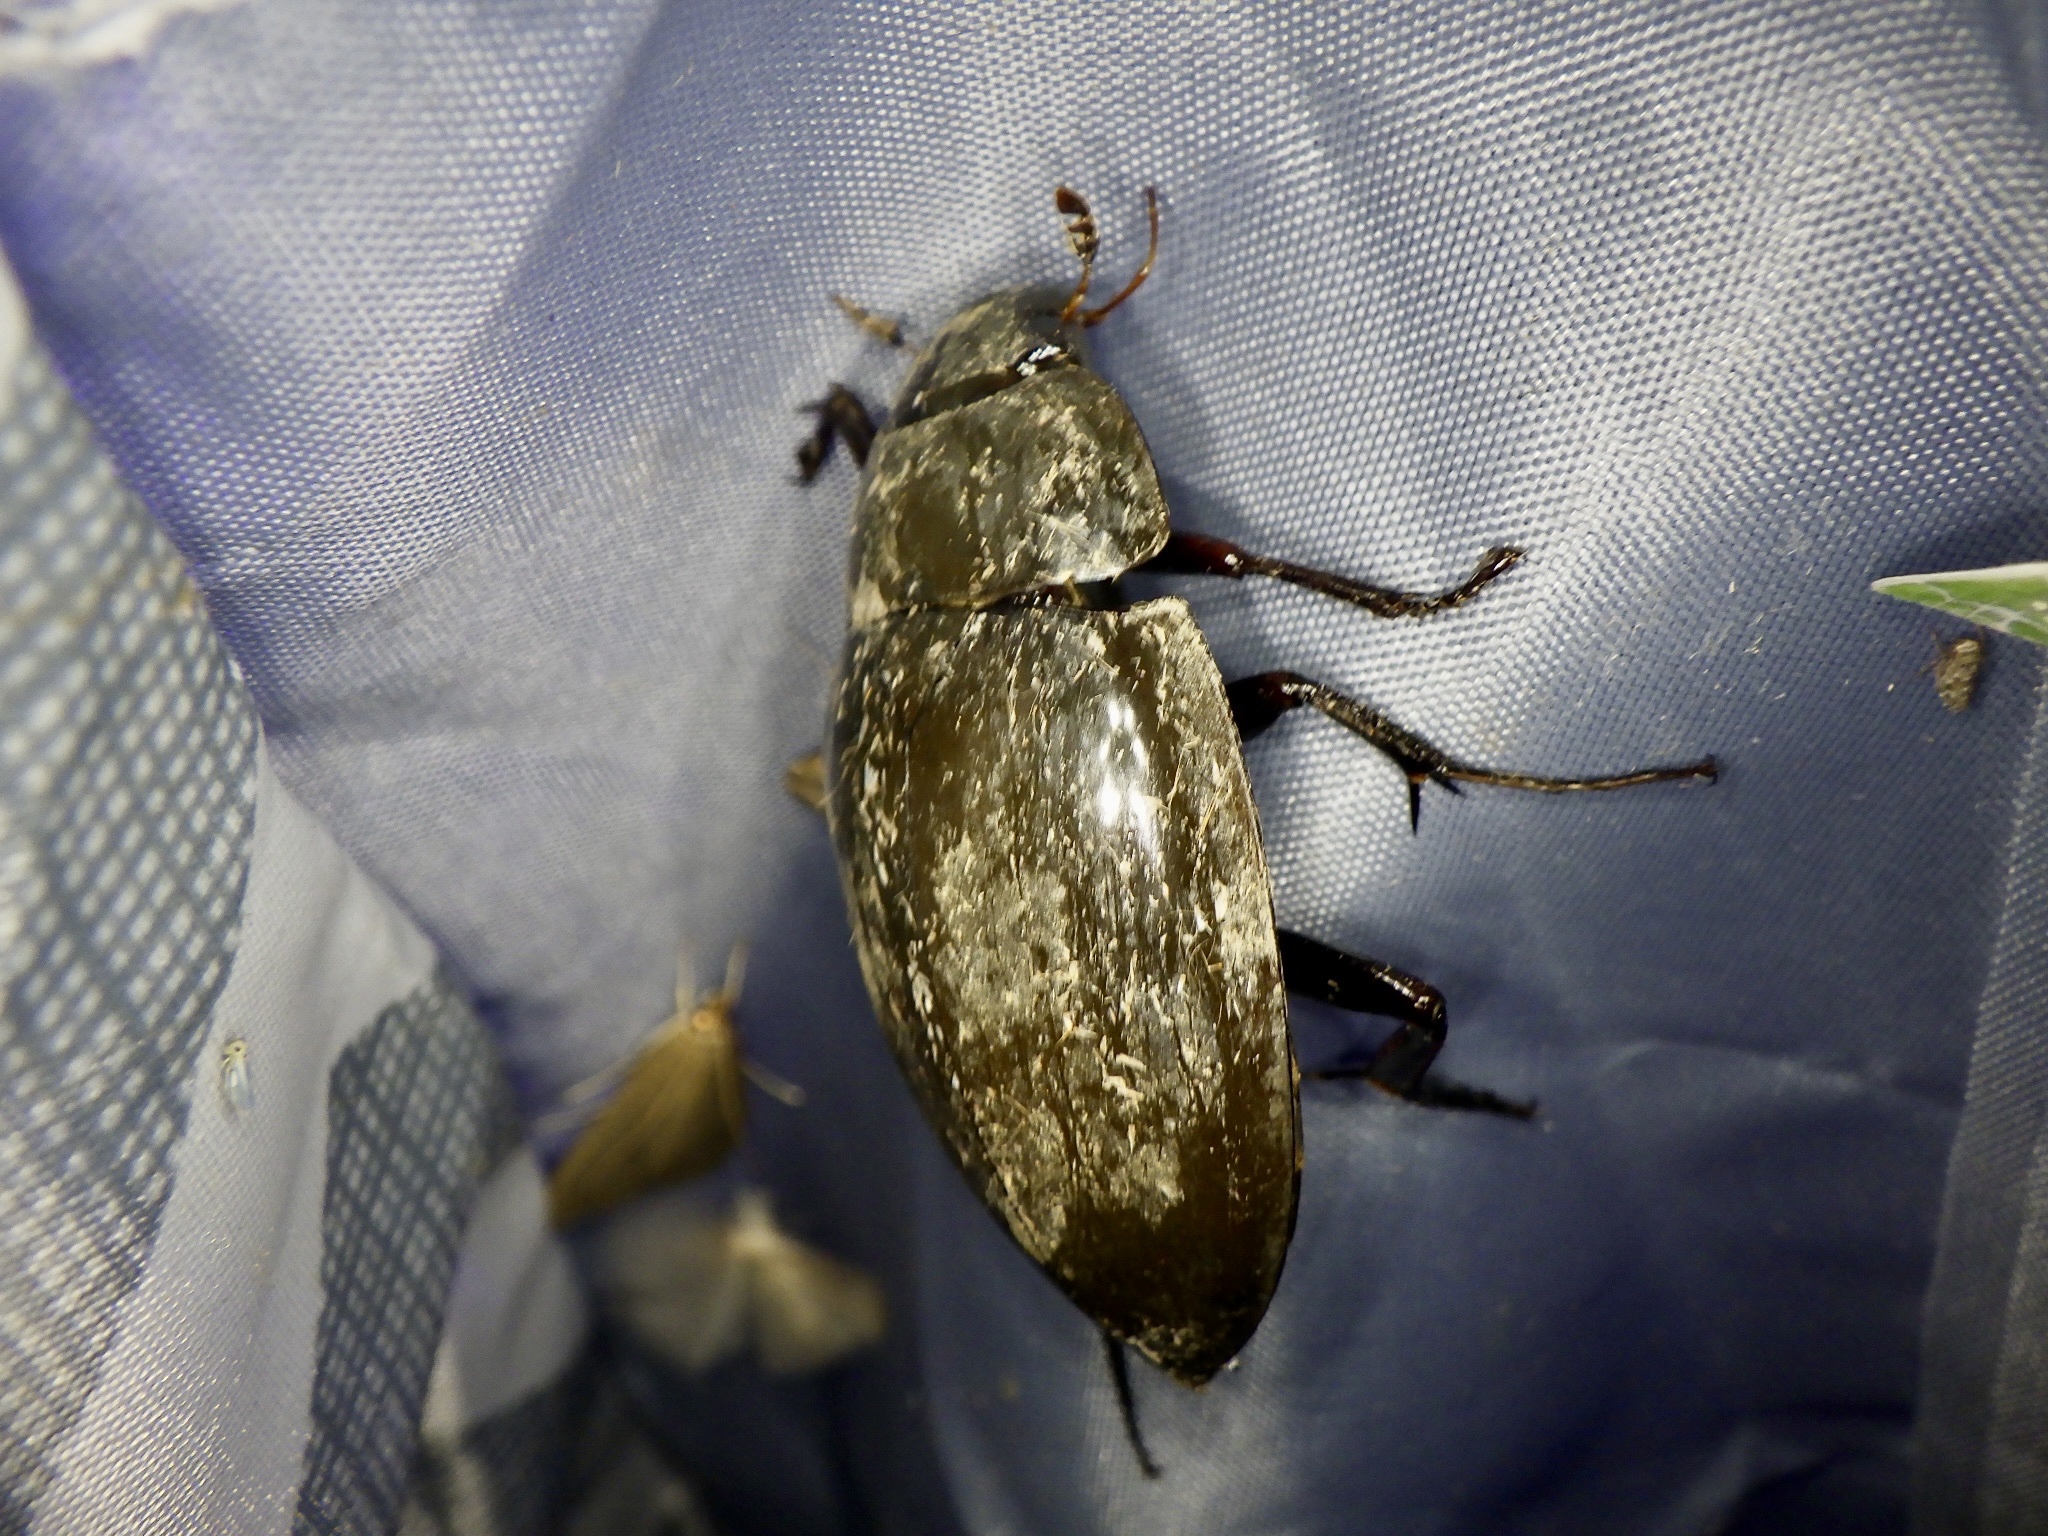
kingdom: Animalia
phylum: Arthropoda
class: Insecta
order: Coleoptera
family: Hydrophilidae
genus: Hydrophilus
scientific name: Hydrophilus acuminatus
